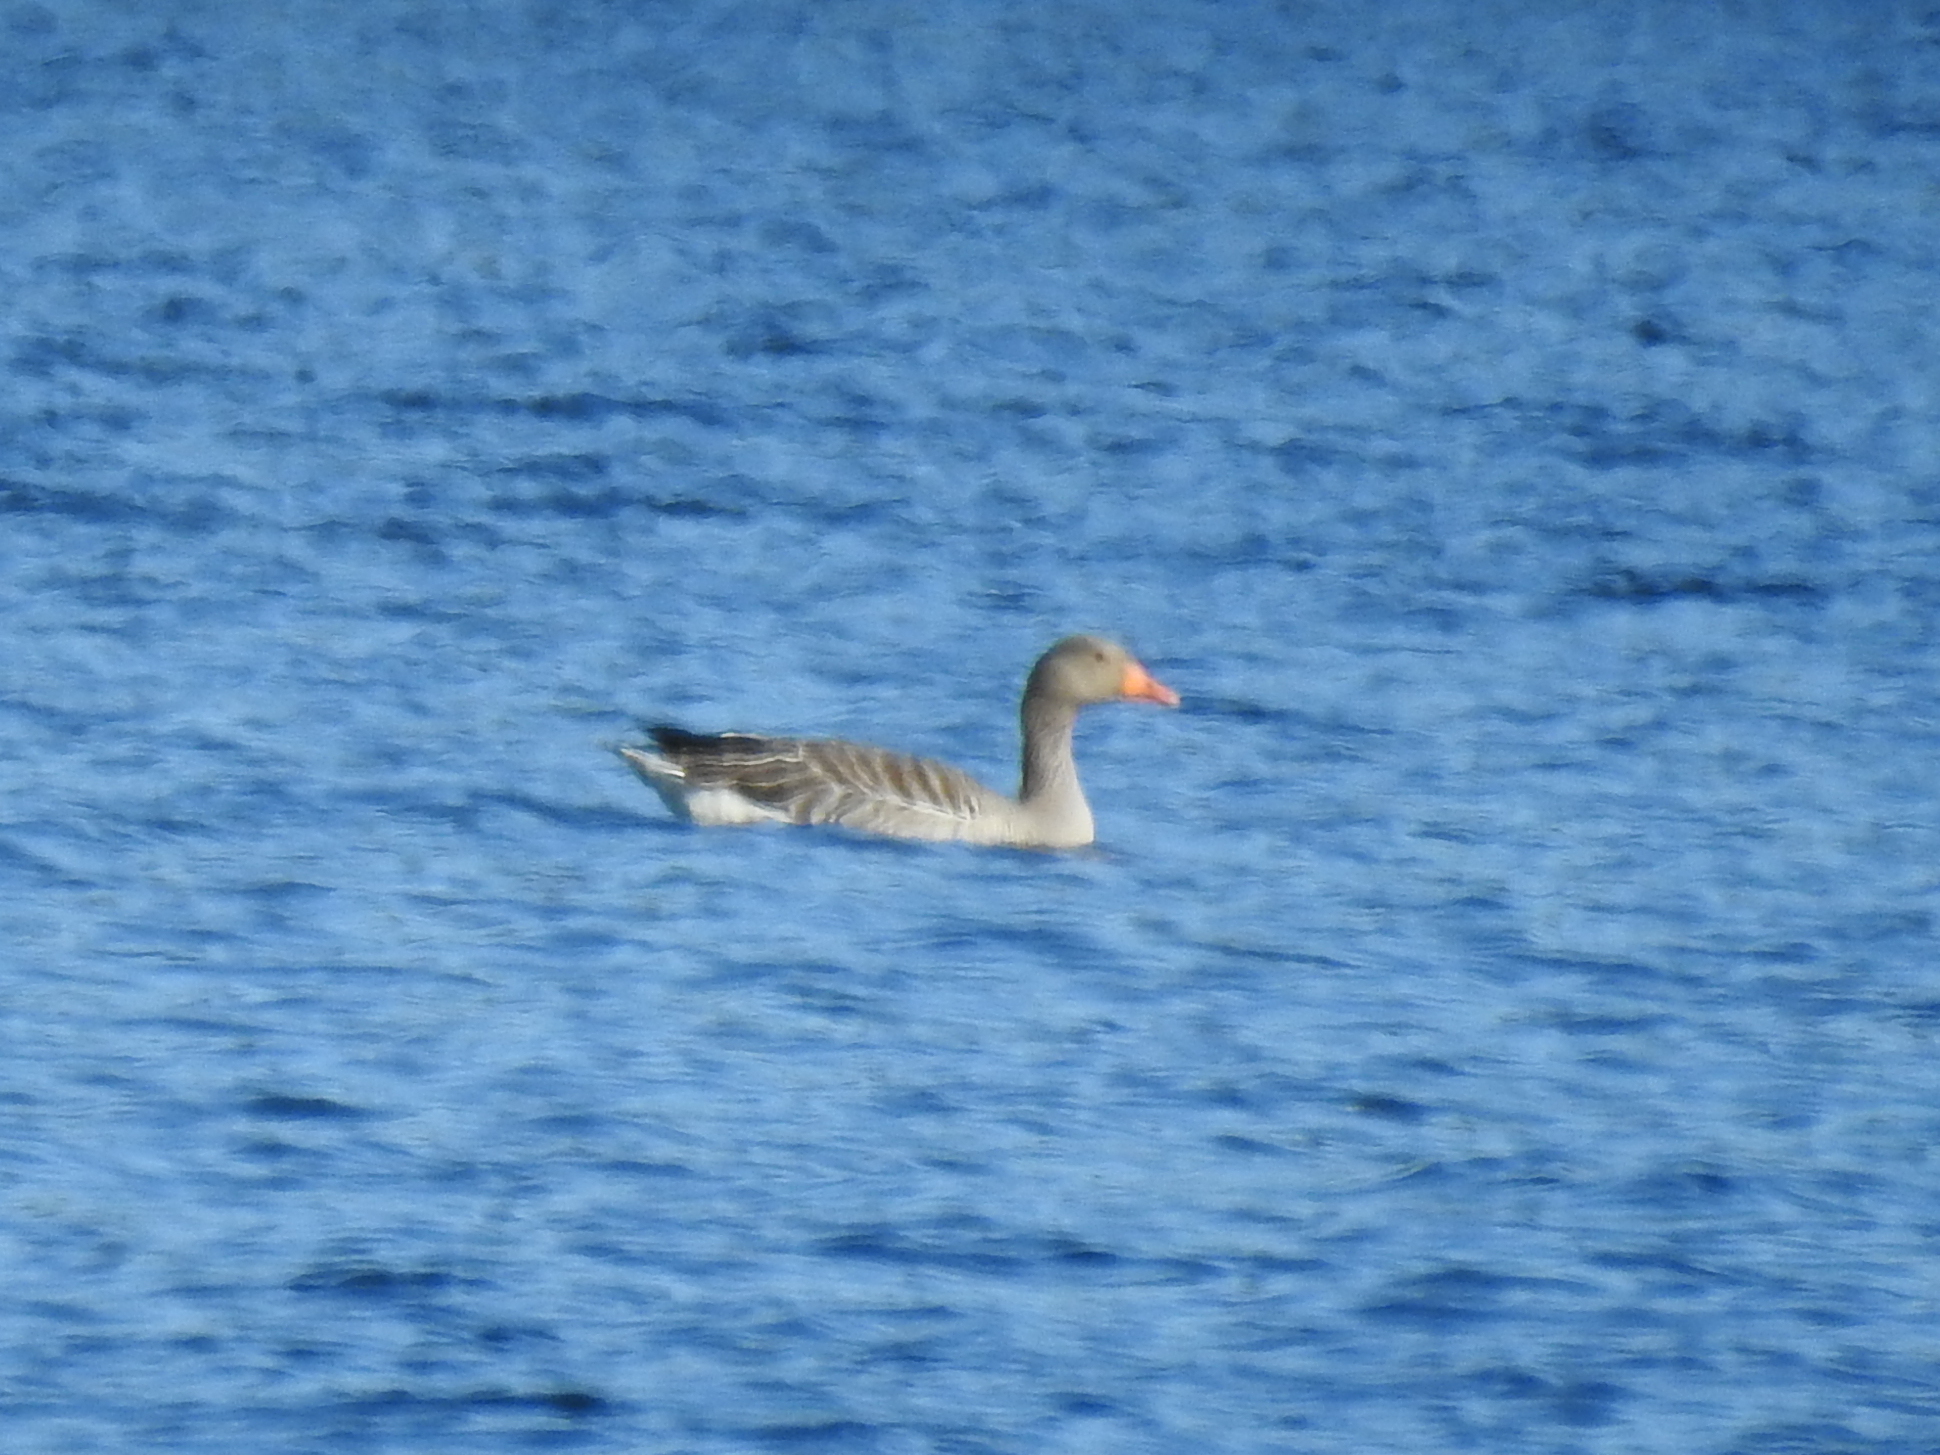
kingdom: Animalia
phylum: Chordata
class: Aves
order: Anseriformes
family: Anatidae
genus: Anser
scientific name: Anser anser
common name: Greylag goose
